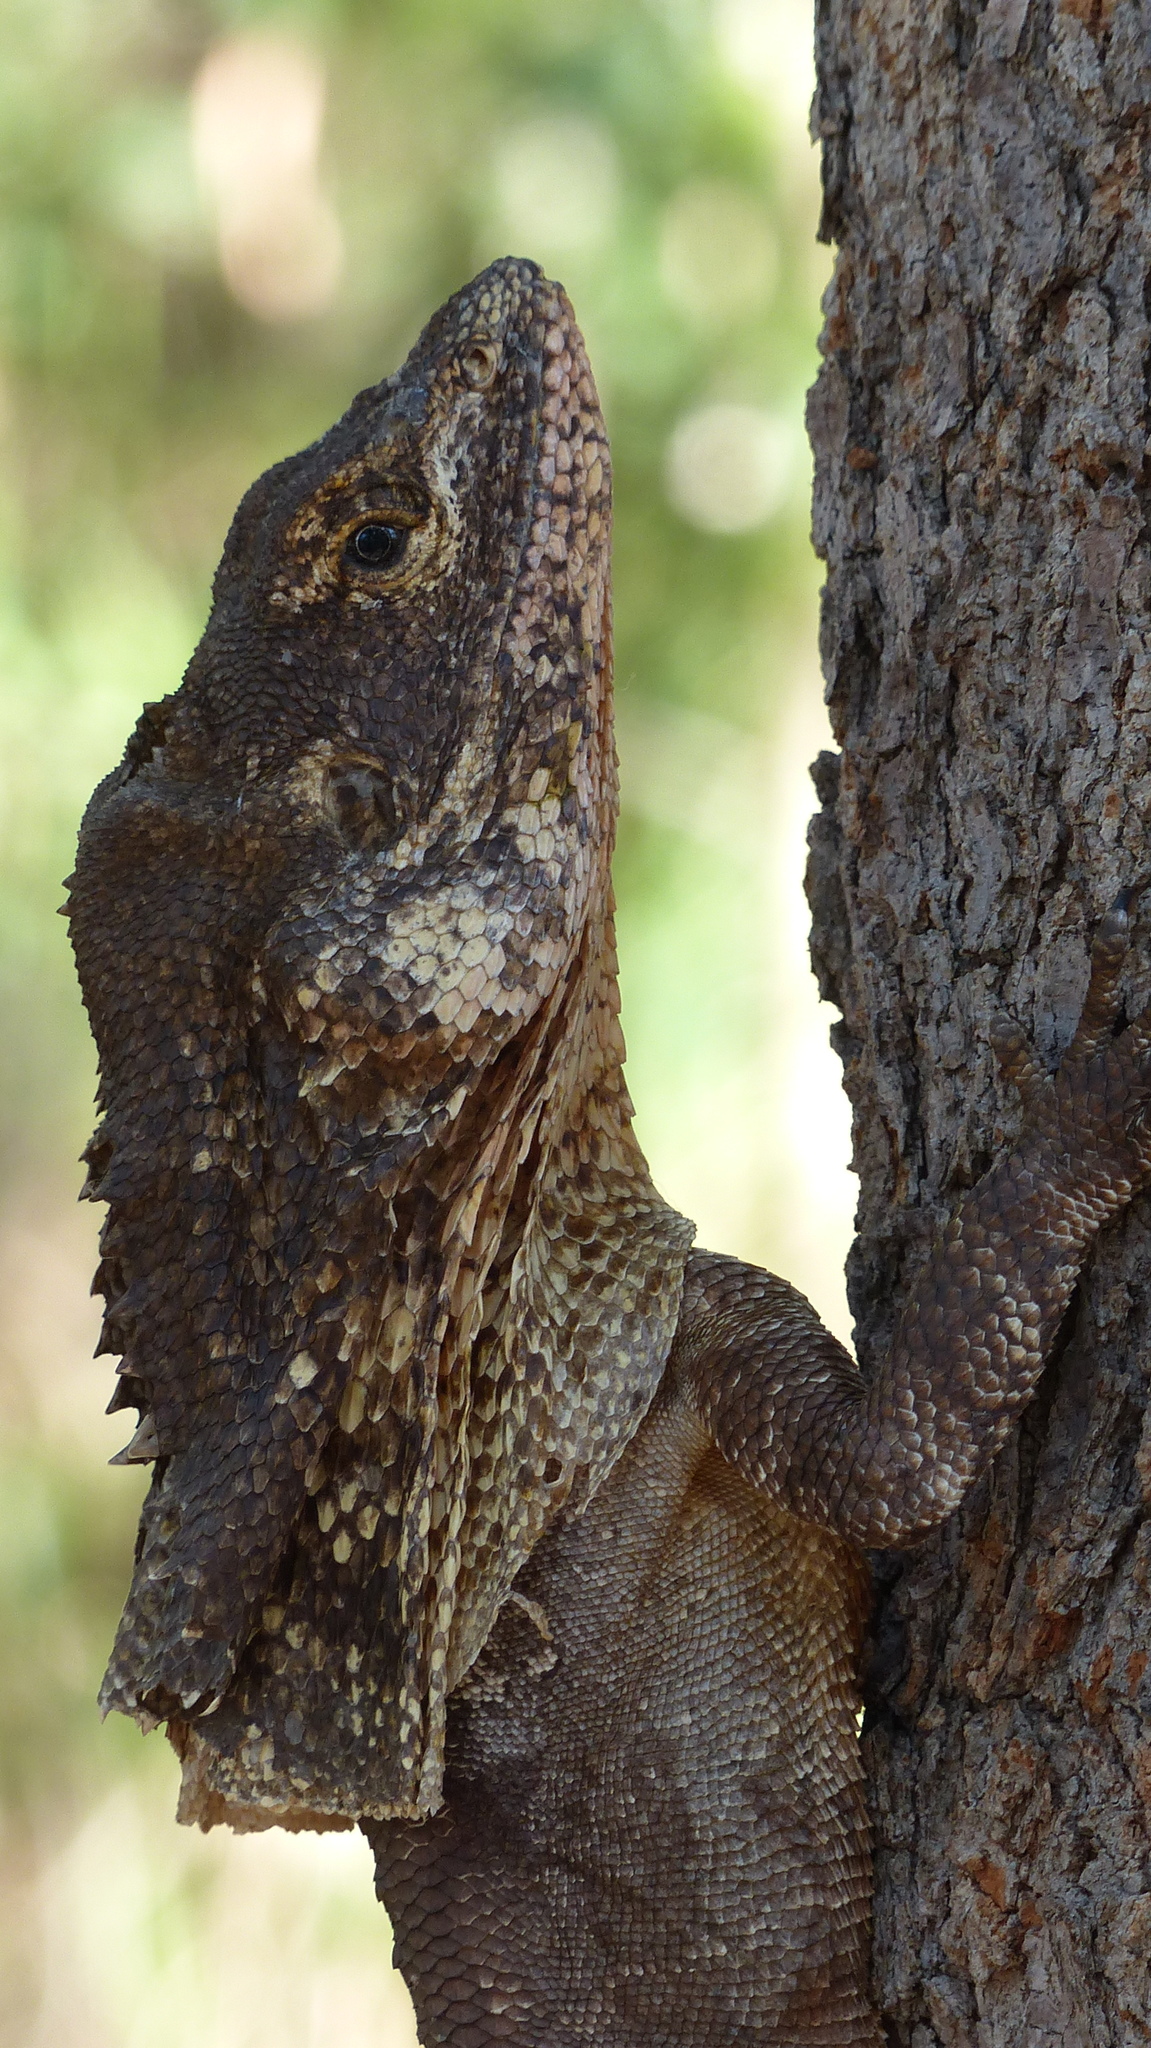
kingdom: Animalia
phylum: Chordata
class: Squamata
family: Agamidae
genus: Chlamydosaurus
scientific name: Chlamydosaurus kingii
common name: Frilled lizard
